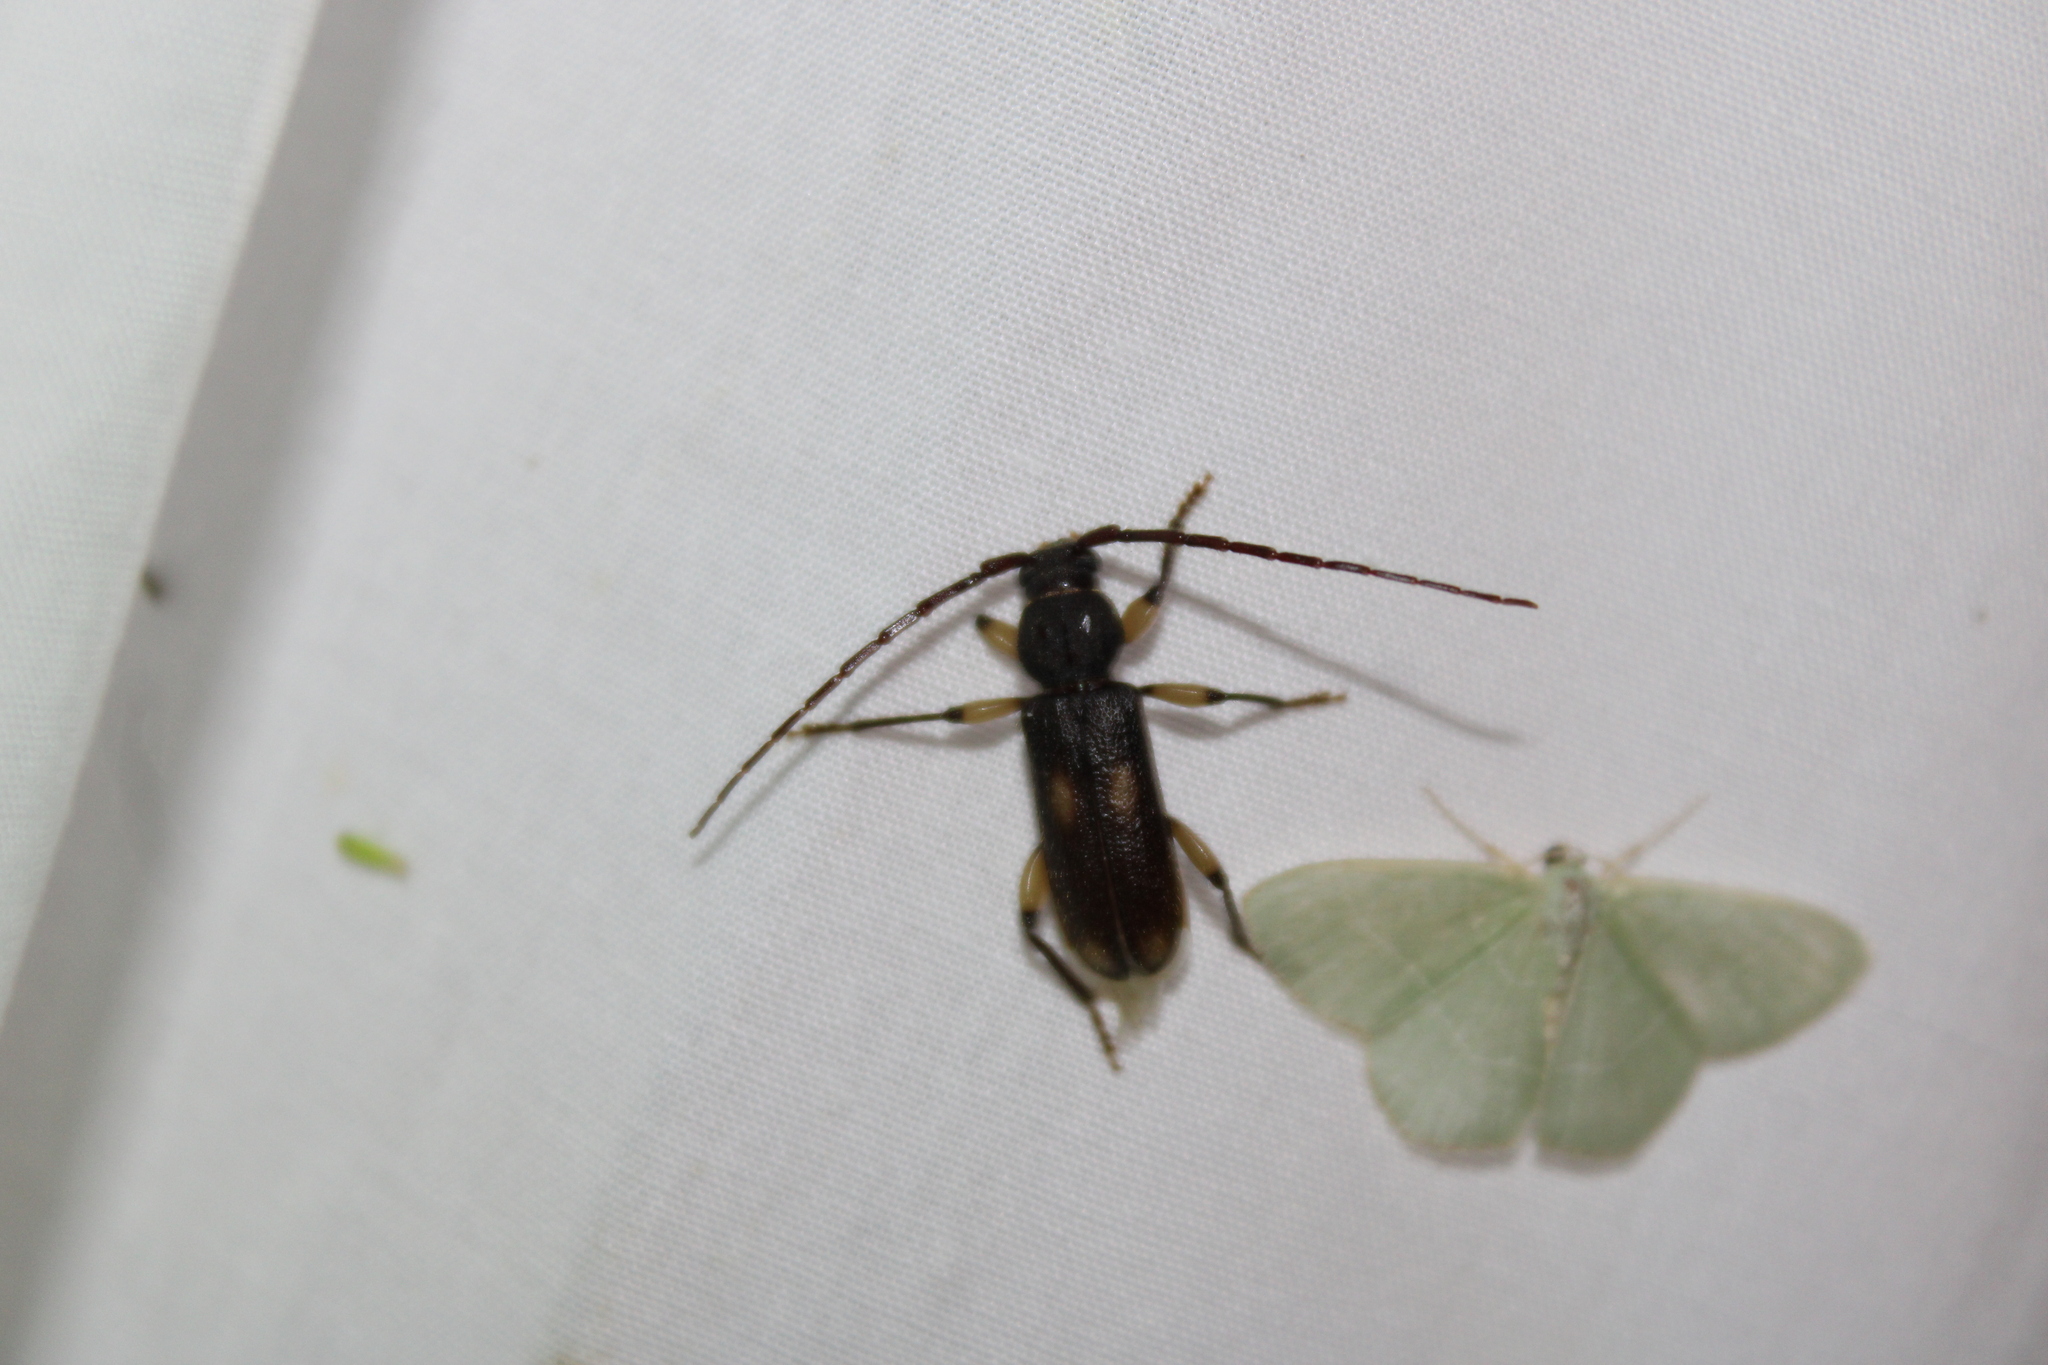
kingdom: Animalia
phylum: Arthropoda
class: Insecta
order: Coleoptera
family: Cerambycidae
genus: Tylonotus
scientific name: Tylonotus bimaculatus
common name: Ash and privet borer
